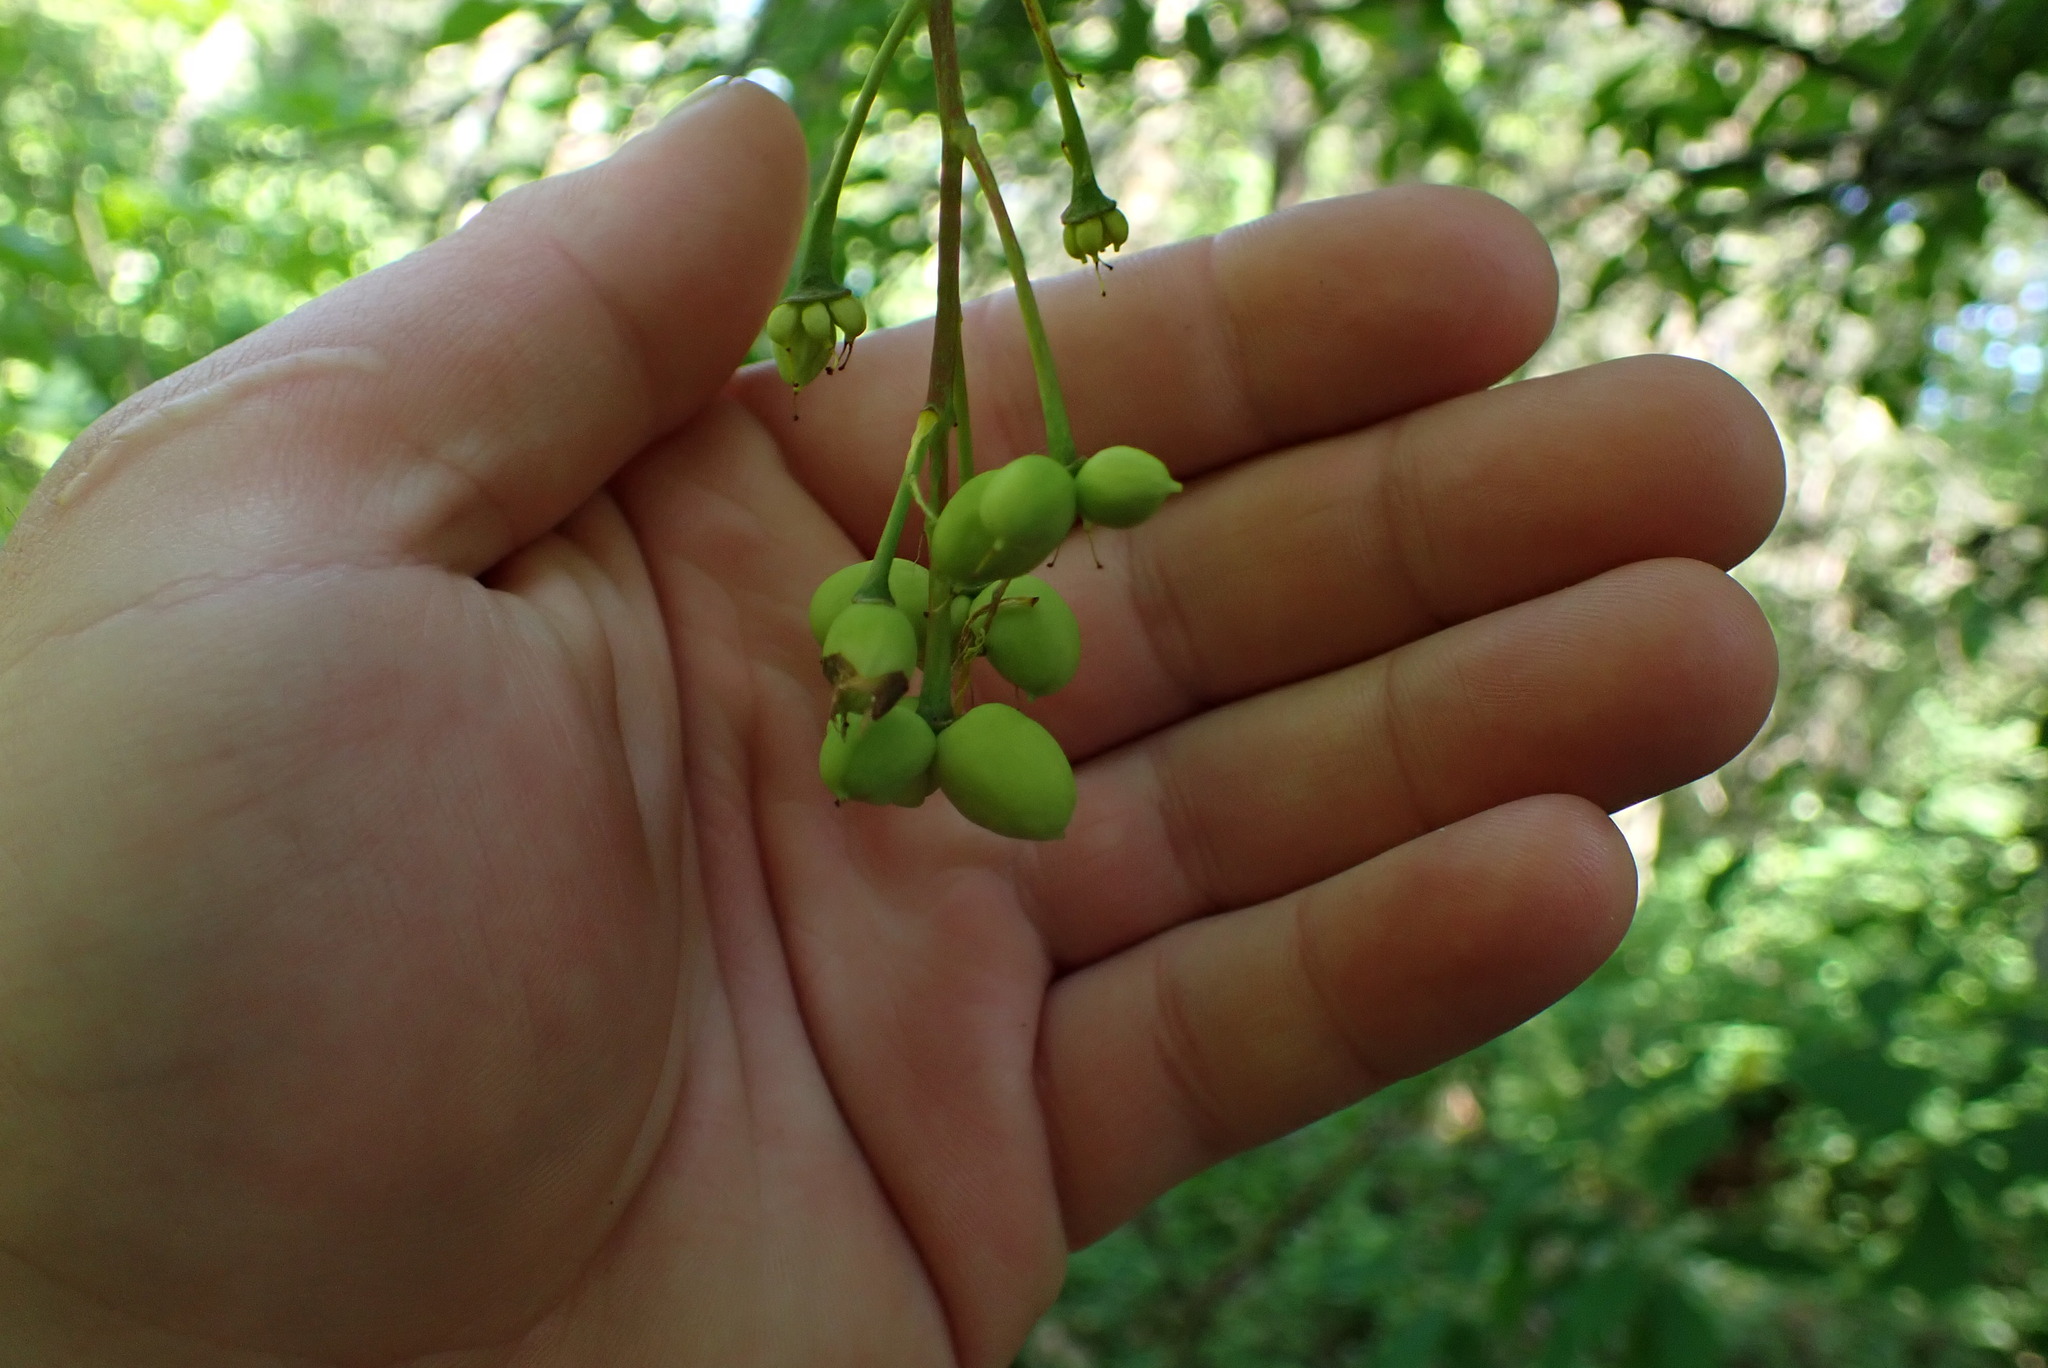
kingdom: Plantae
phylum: Tracheophyta
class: Magnoliopsida
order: Rosales
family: Rosaceae
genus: Oemleria
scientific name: Oemleria cerasiformis
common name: Osoberry
